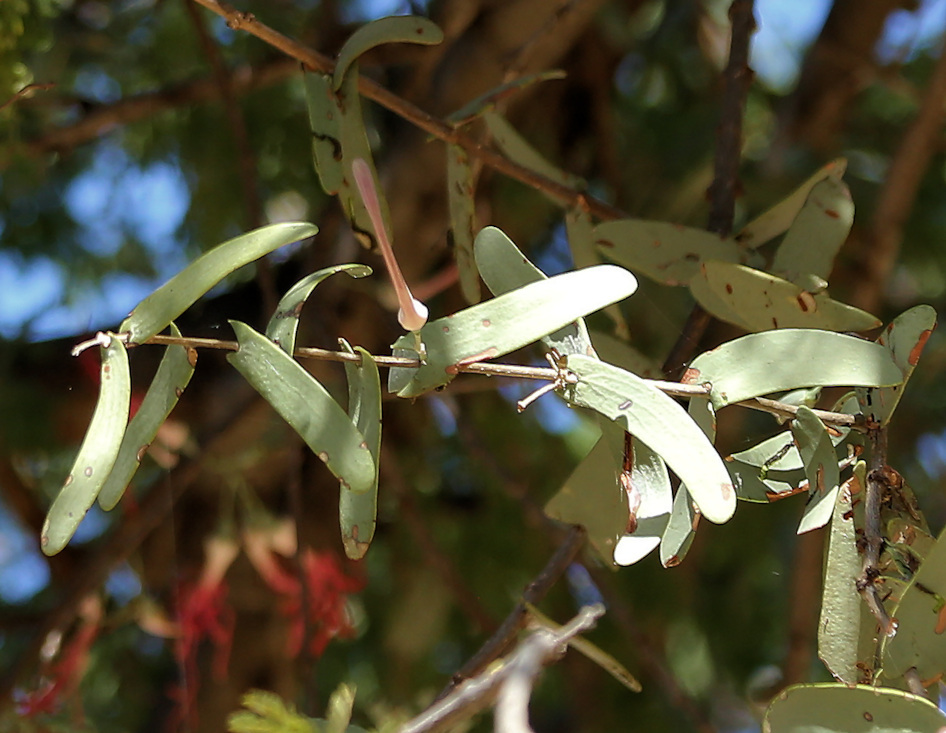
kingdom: Plantae
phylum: Tracheophyta
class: Magnoliopsida
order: Santalales
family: Loranthaceae
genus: Plicosepalus
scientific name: Plicosepalus amplexicaulis
